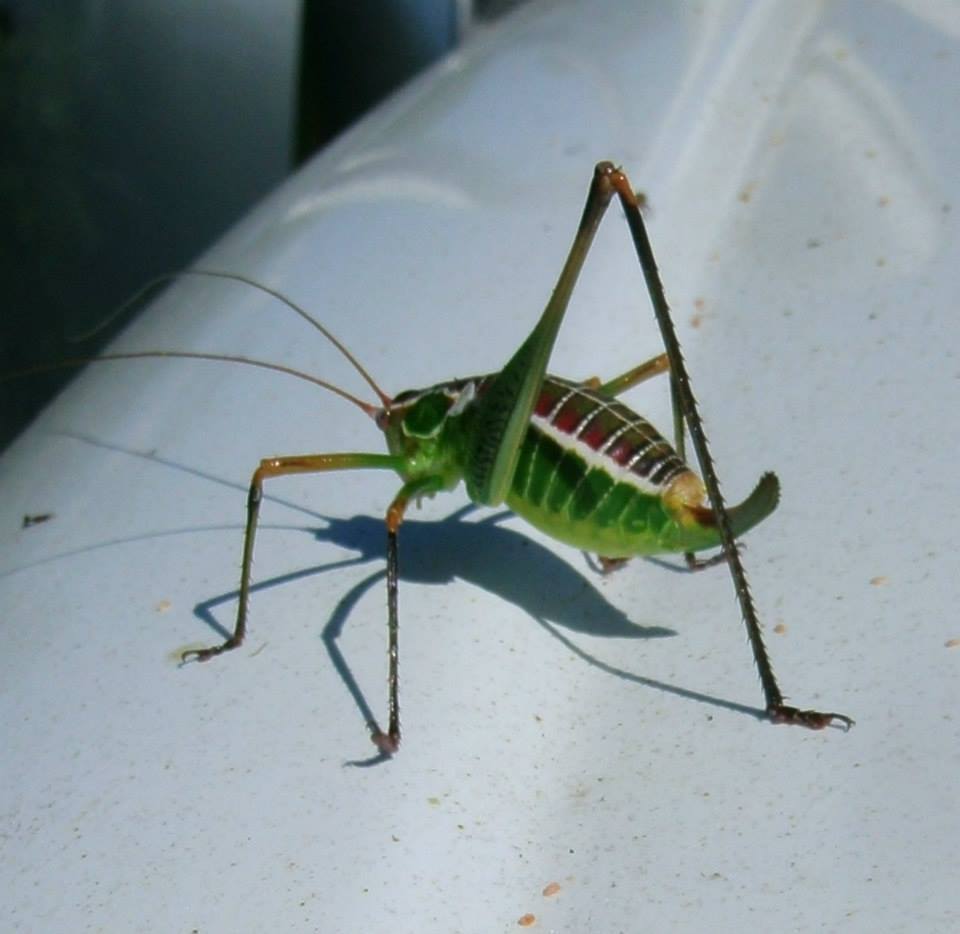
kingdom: Animalia
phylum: Arthropoda
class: Insecta
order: Orthoptera
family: Tettigoniidae
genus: Obolopteryx
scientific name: Obolopteryx castanea
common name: Chestnut short-winged katydid
